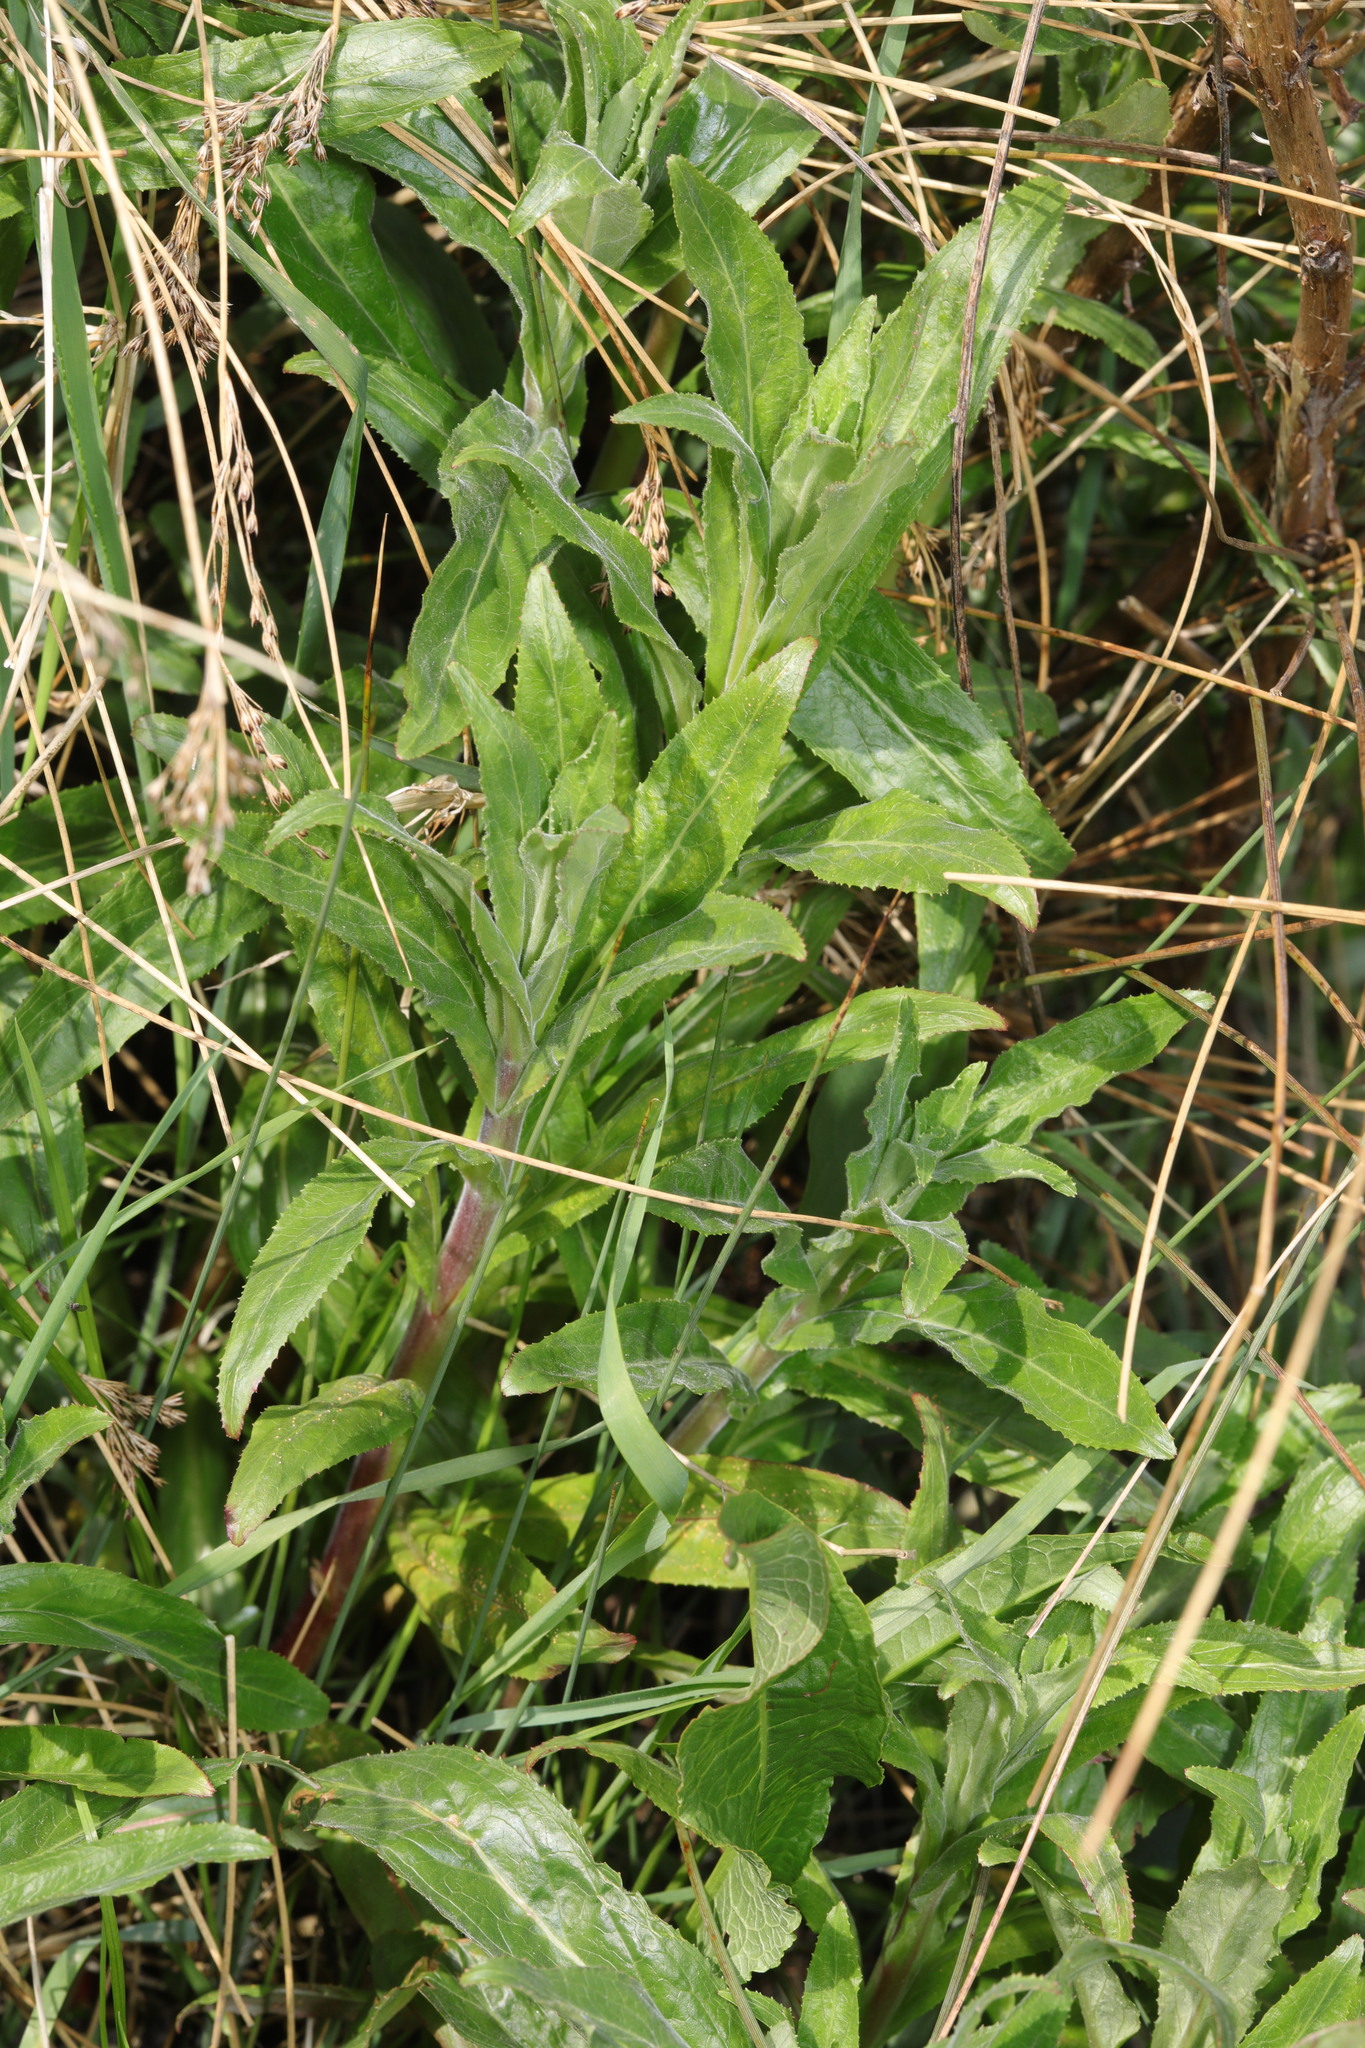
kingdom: Plantae
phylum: Tracheophyta
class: Magnoliopsida
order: Myrtales
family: Onagraceae
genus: Epilobium
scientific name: Epilobium hirsutum
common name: Great willowherb
